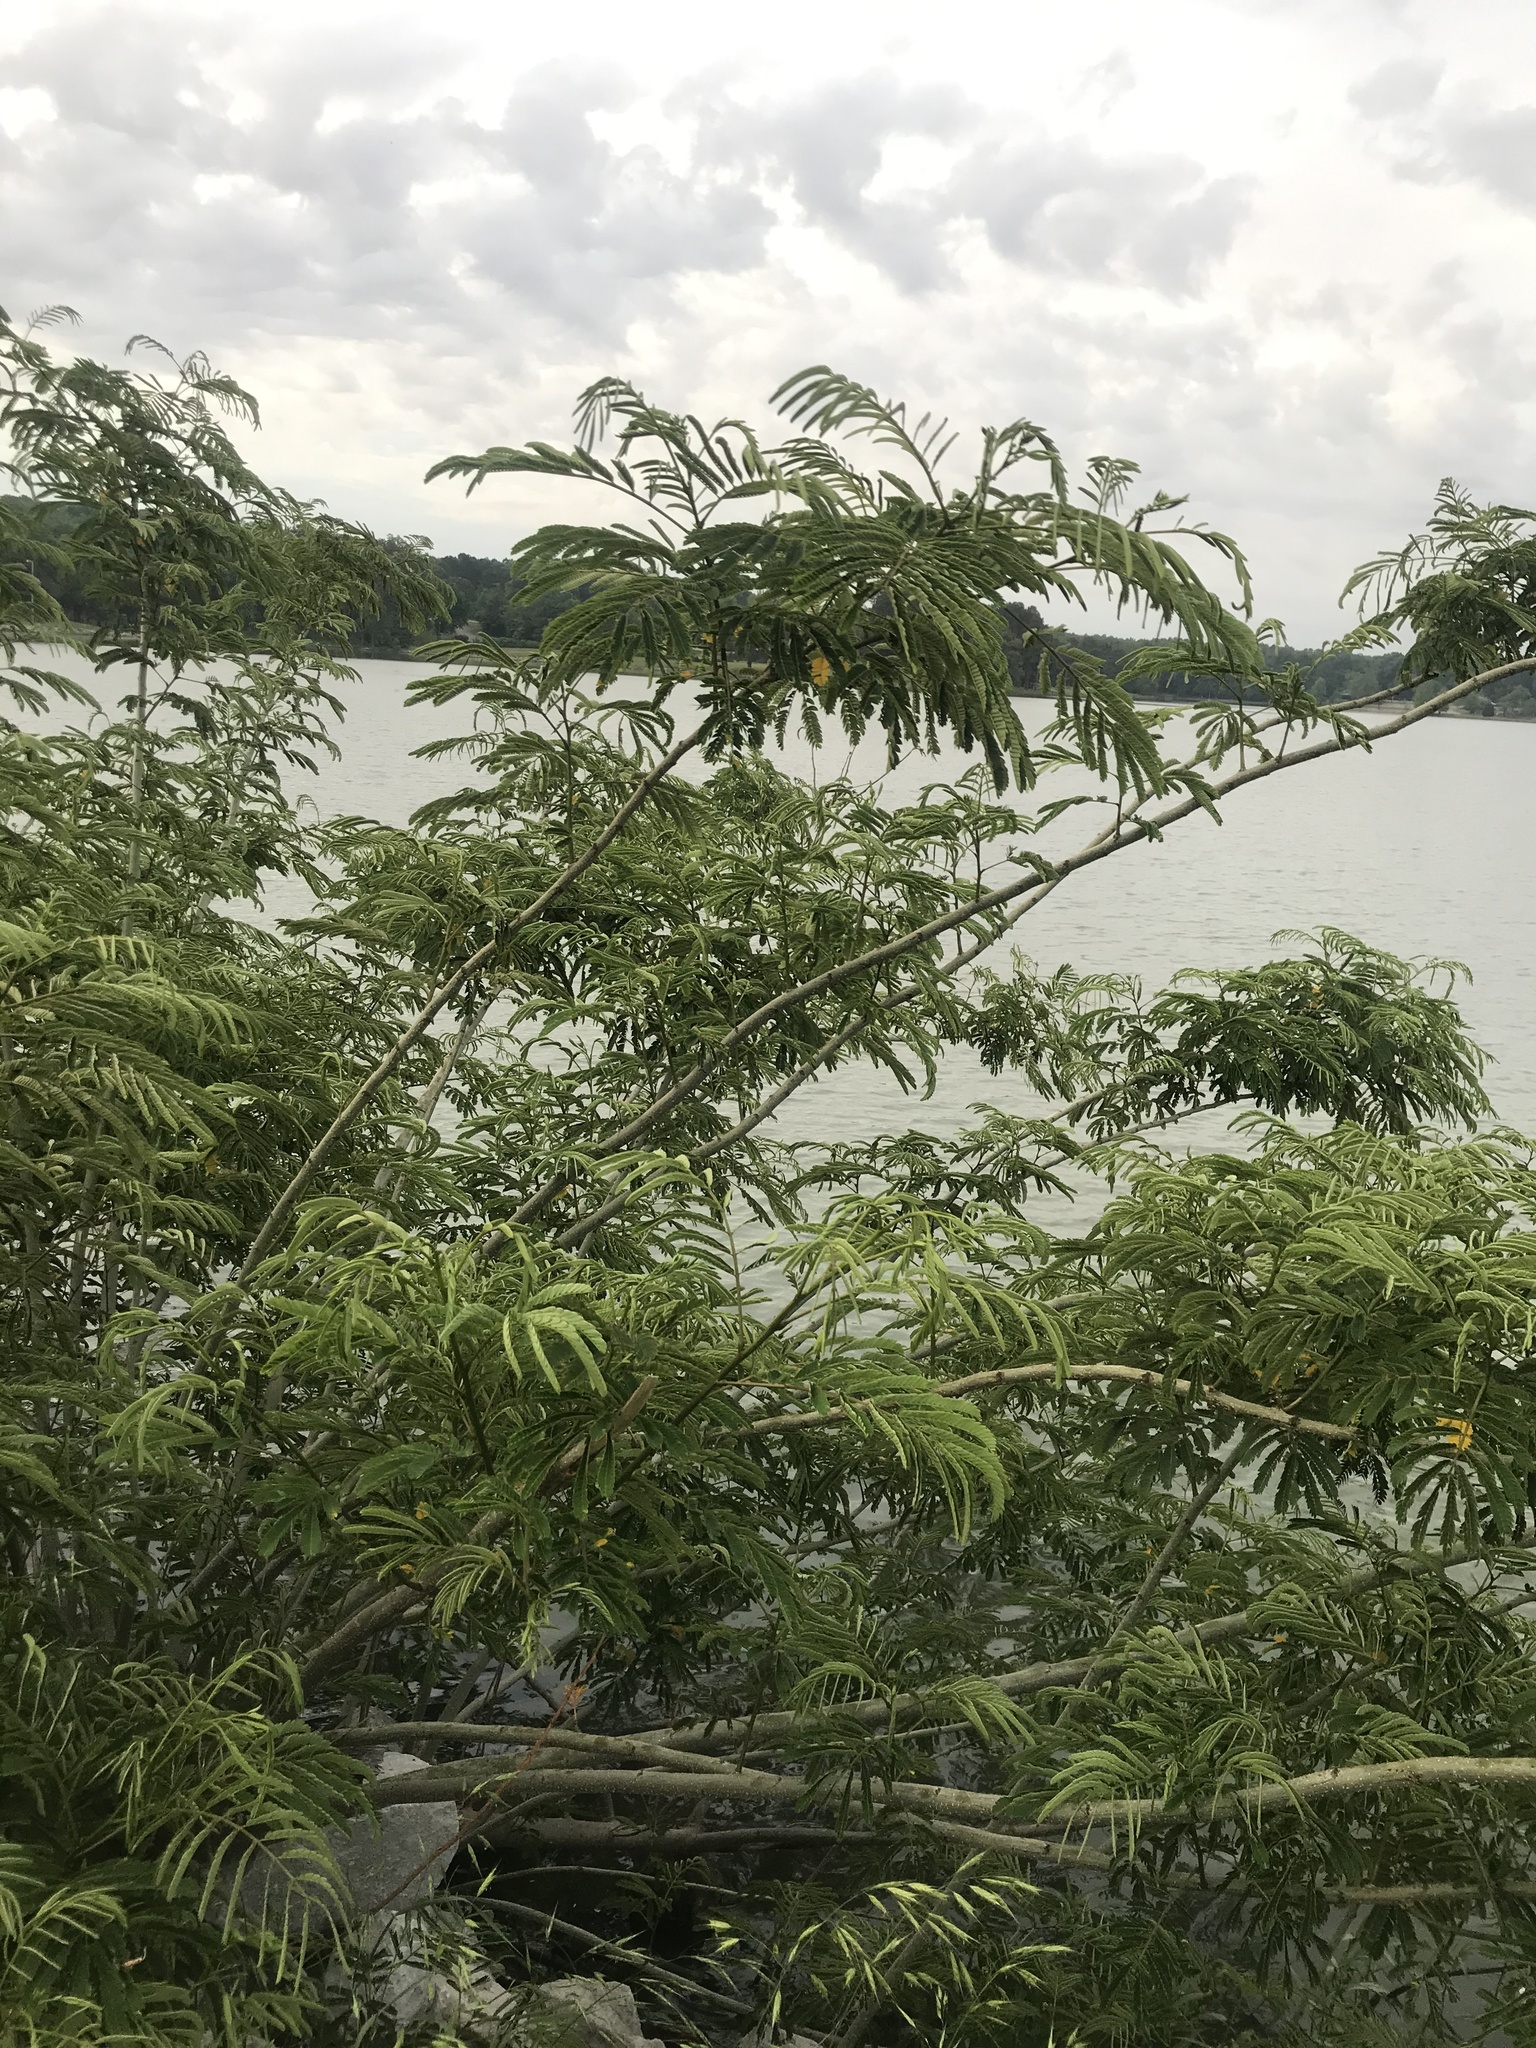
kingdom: Plantae
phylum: Tracheophyta
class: Magnoliopsida
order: Fabales
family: Fabaceae
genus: Albizia
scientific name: Albizia julibrissin
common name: Silktree
